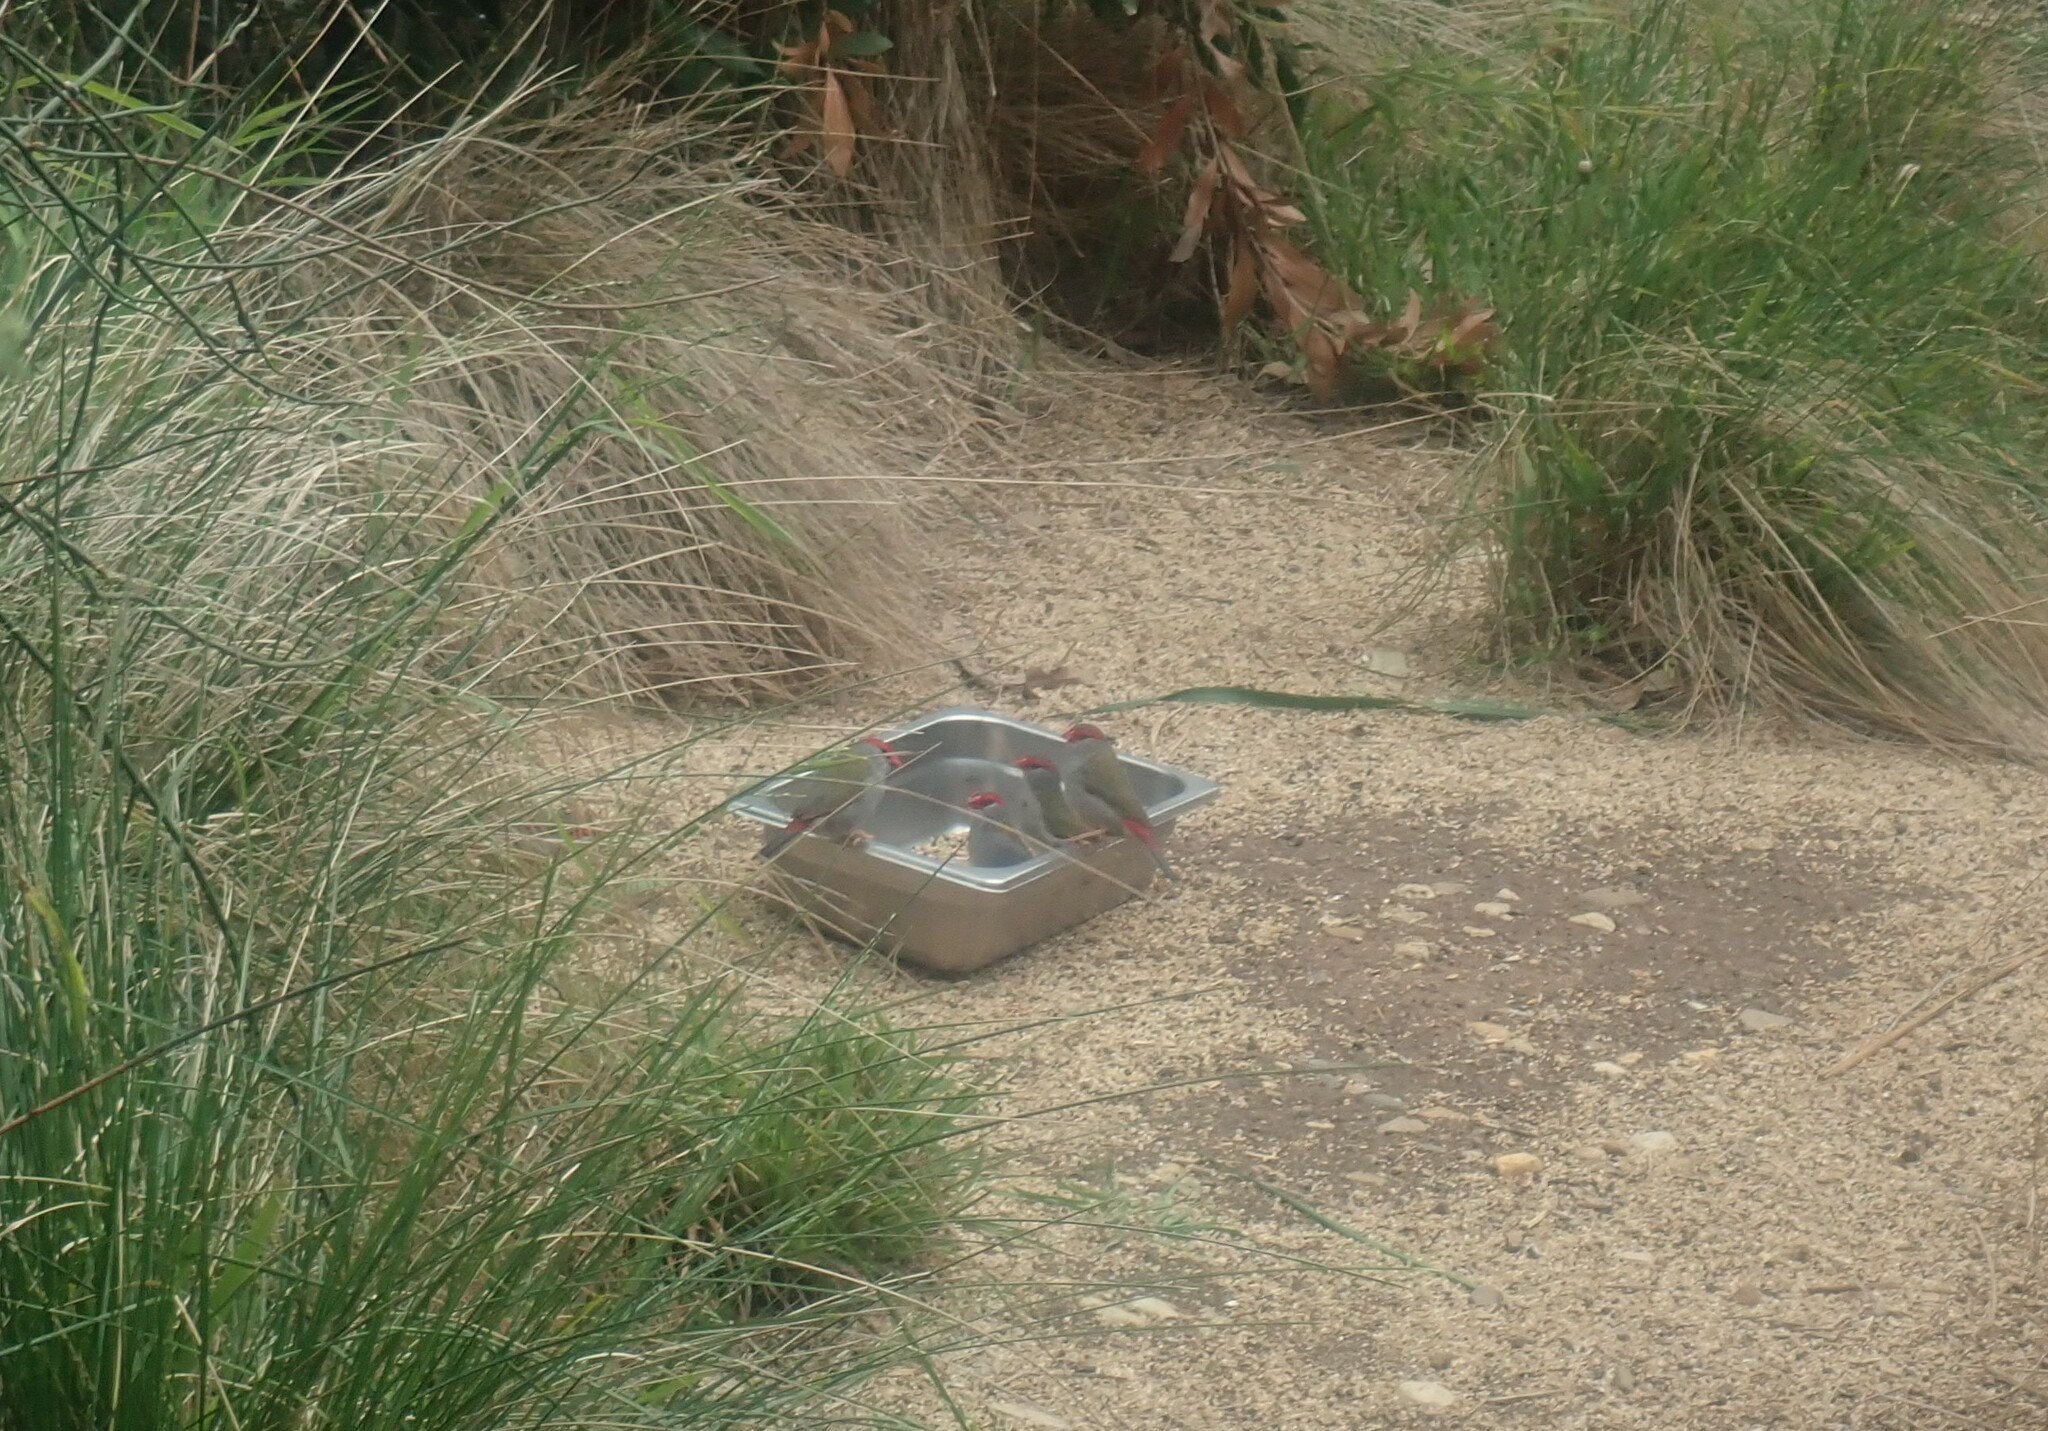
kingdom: Animalia
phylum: Chordata
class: Aves
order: Passeriformes
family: Estrildidae
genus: Neochmia
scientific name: Neochmia temporalis
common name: Red-browed finch
